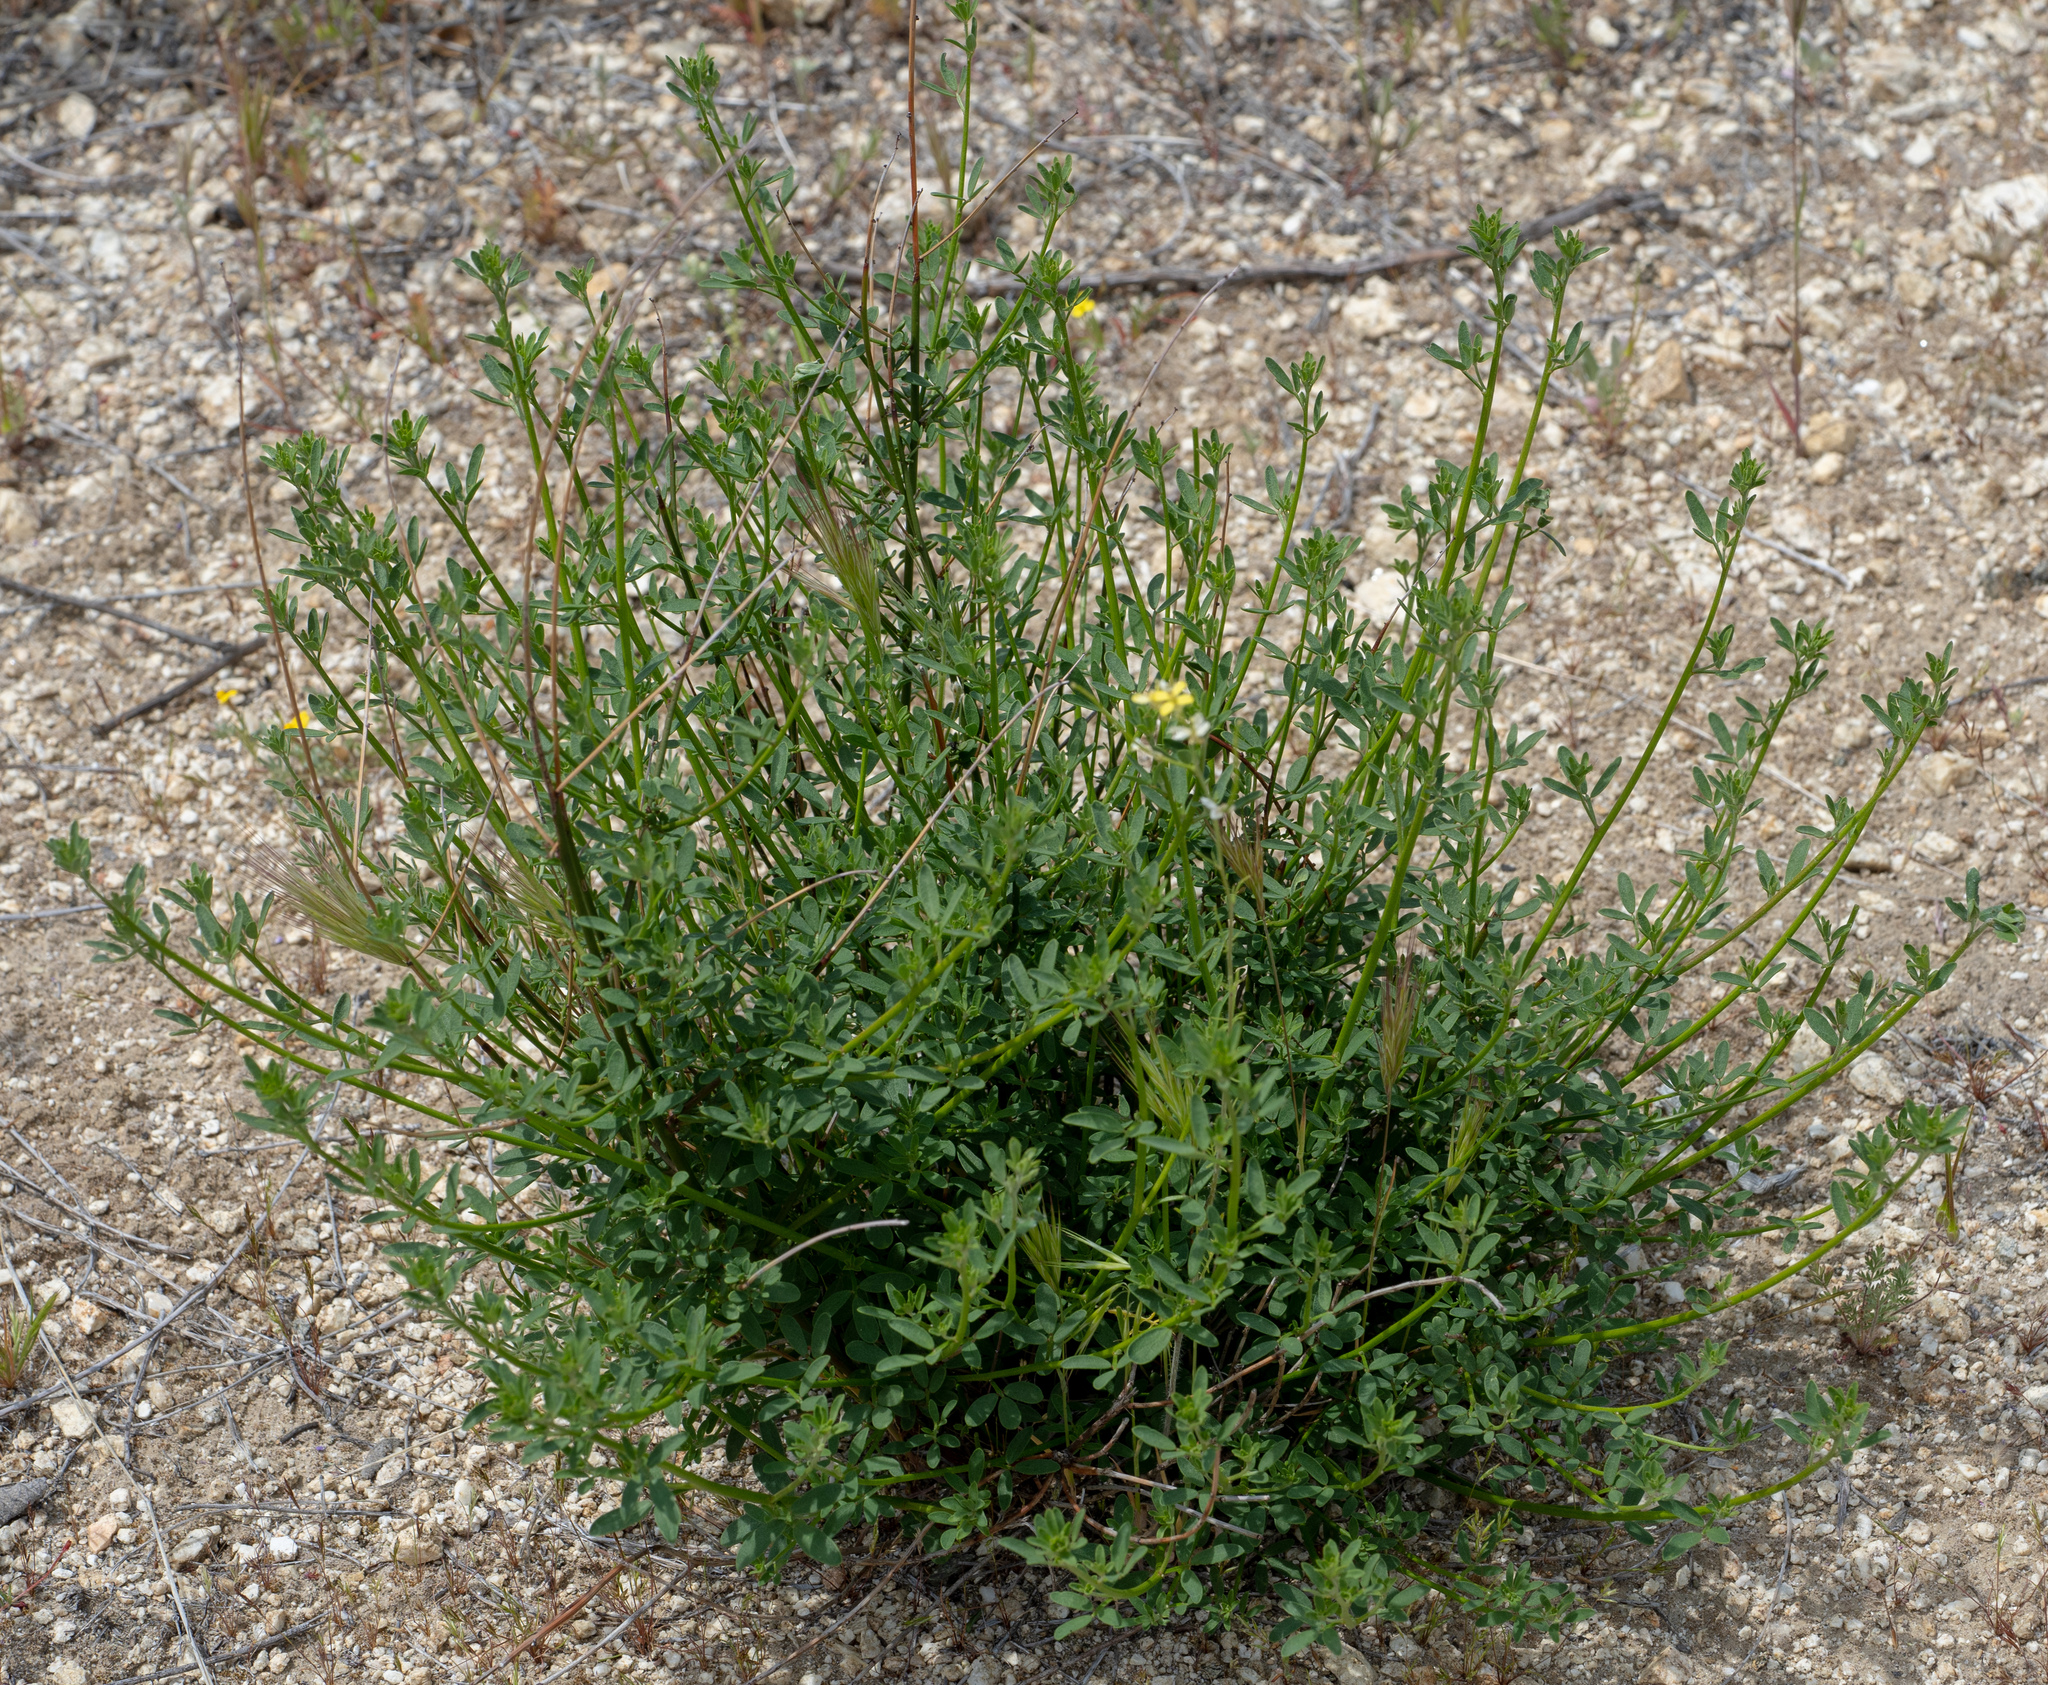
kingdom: Plantae
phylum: Tracheophyta
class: Magnoliopsida
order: Fabales
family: Fabaceae
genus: Acmispon
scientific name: Acmispon glaber
